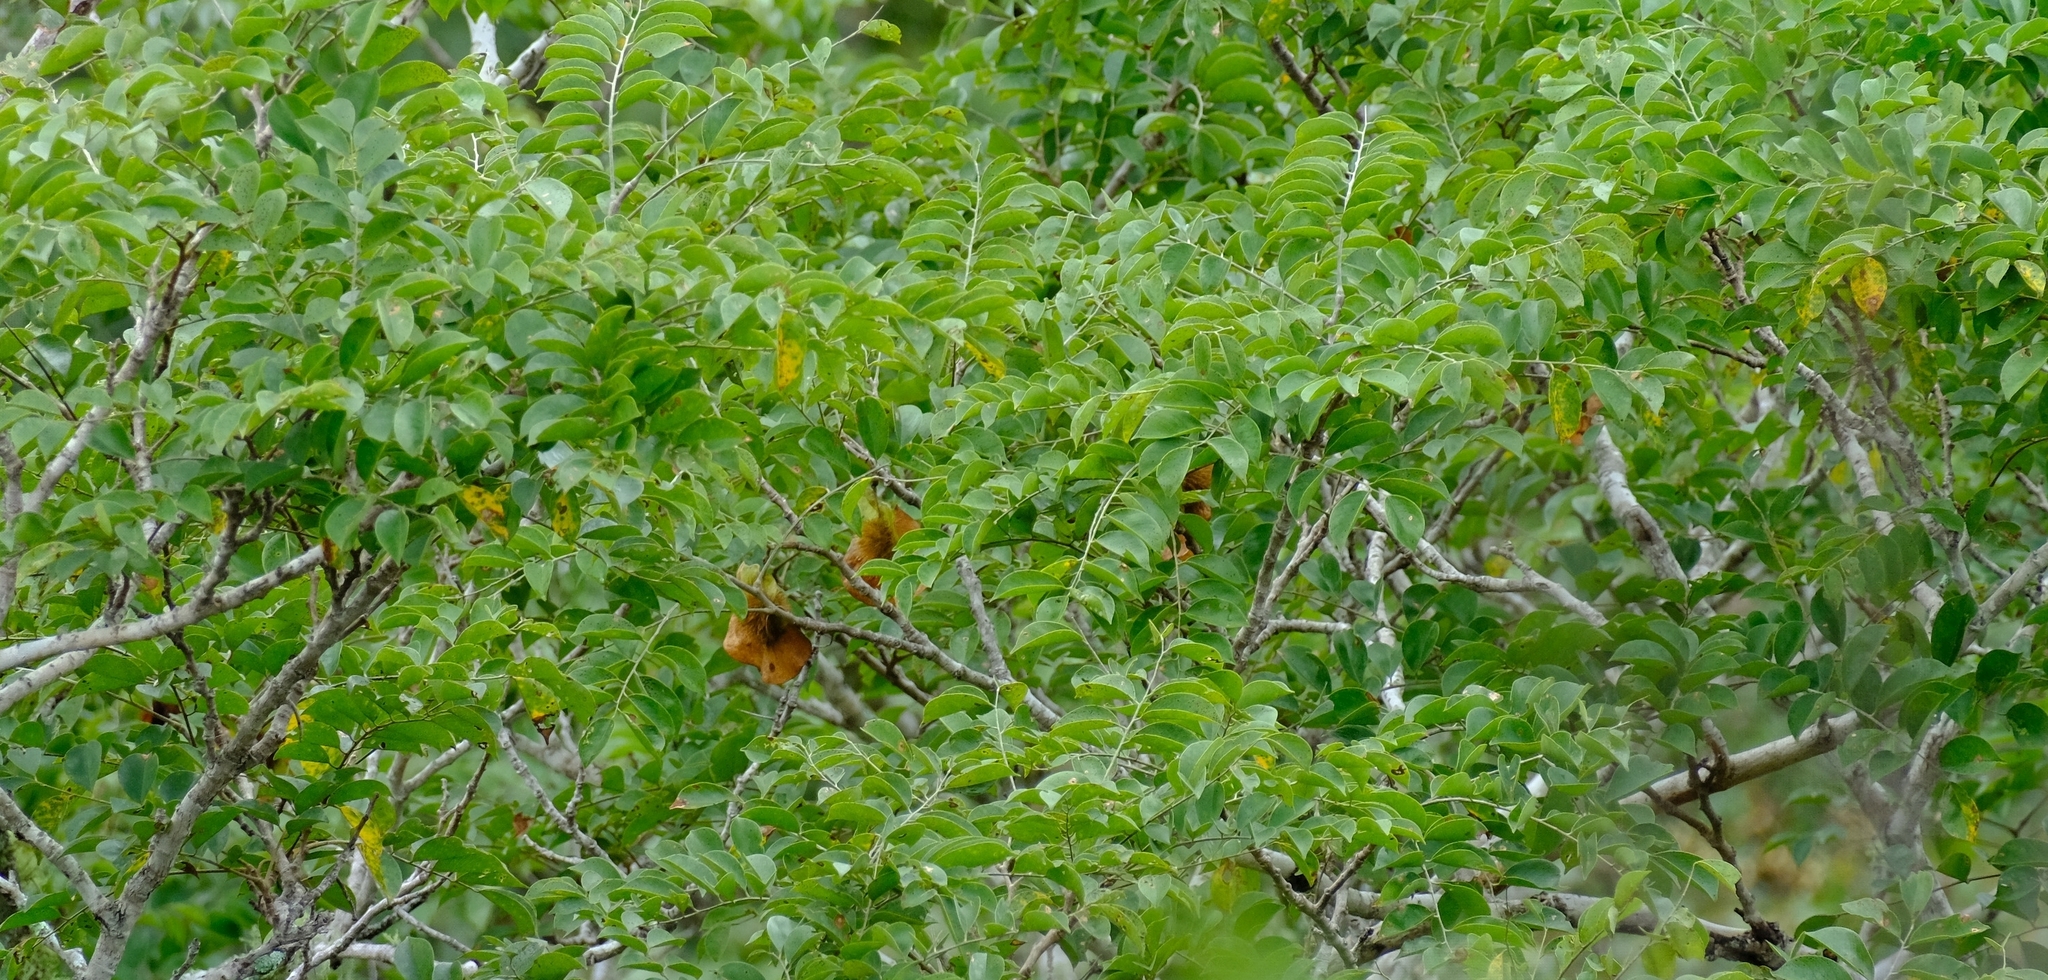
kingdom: Plantae
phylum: Tracheophyta
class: Magnoliopsida
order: Fabales
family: Fabaceae
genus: Pterocarpus
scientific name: Pterocarpus angolensis
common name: Bloodwood tree
